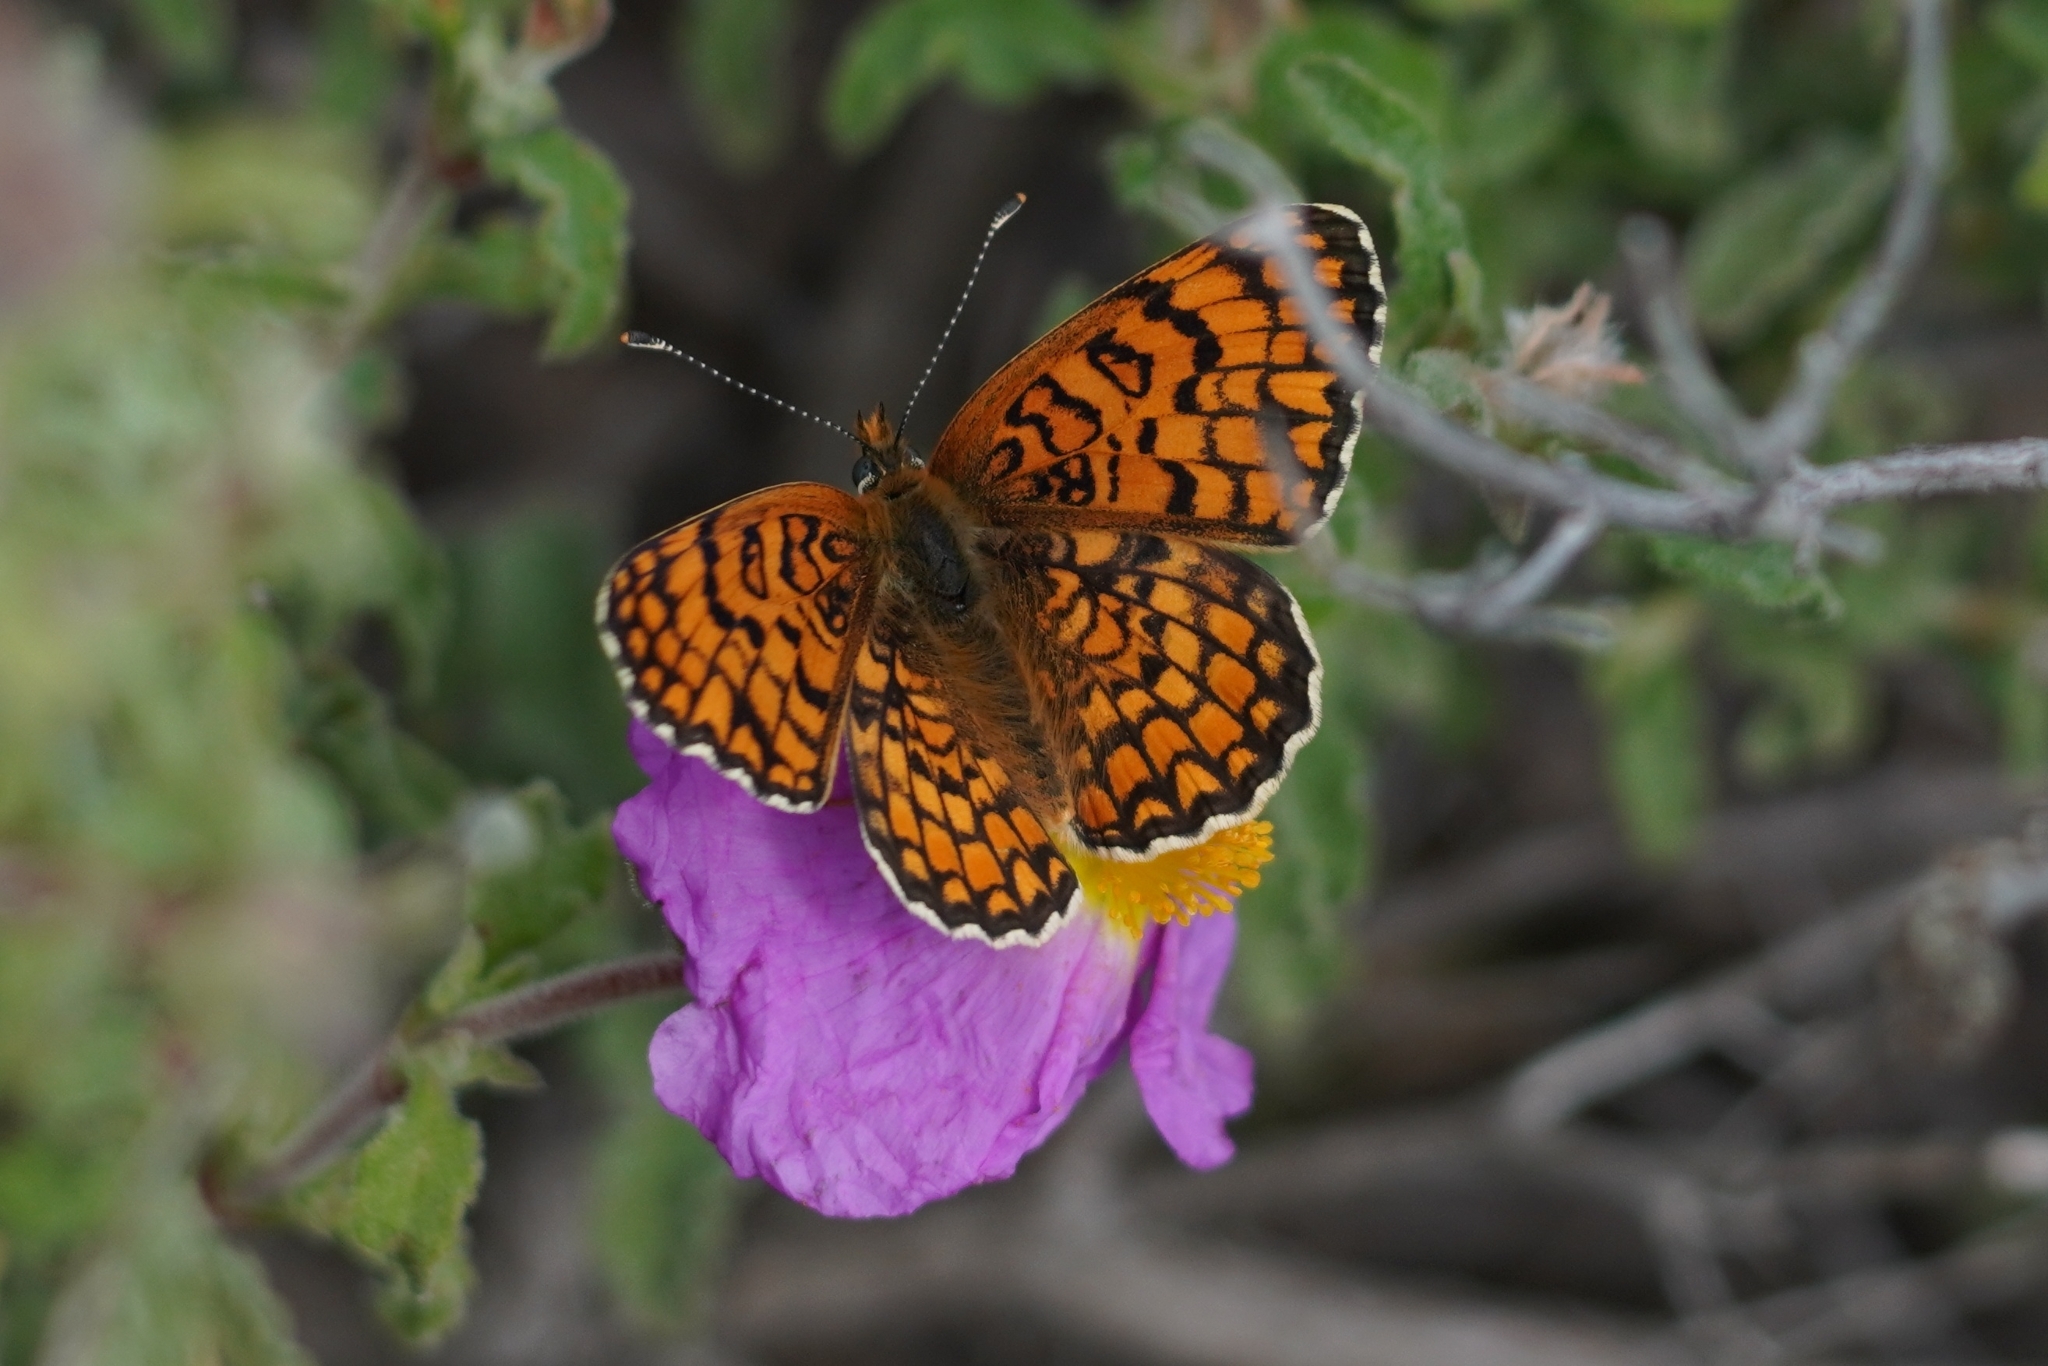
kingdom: Animalia
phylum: Arthropoda
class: Insecta
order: Lepidoptera
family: Nymphalidae
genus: Melitaea
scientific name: Melitaea phoebe
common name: Knapweed fritillary
